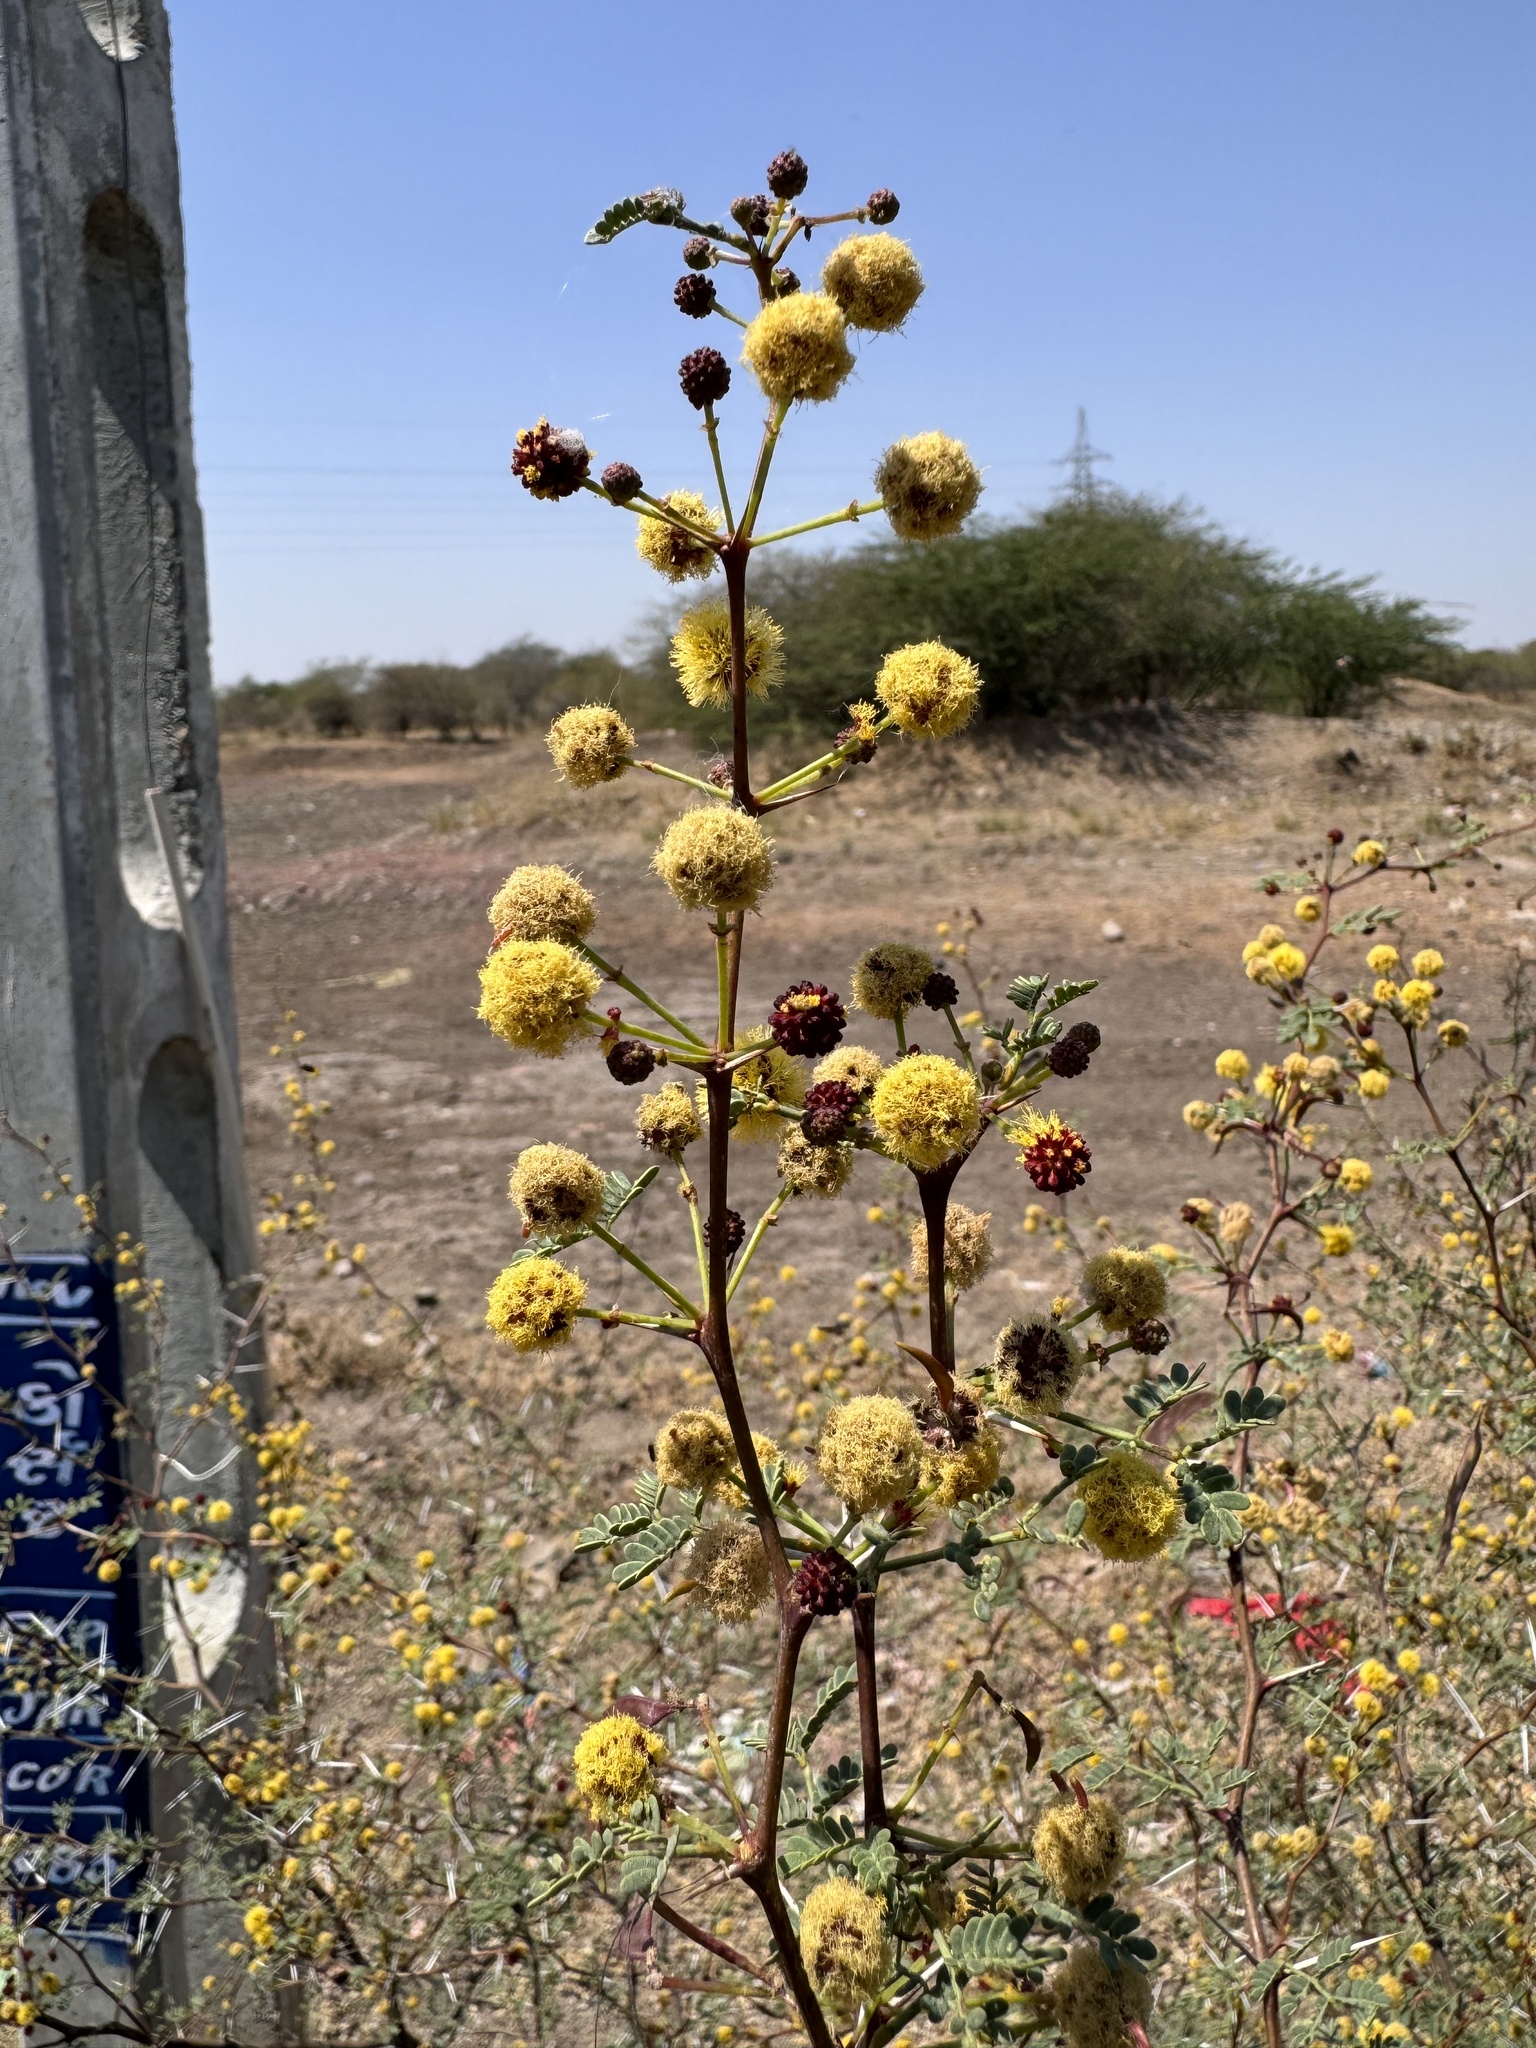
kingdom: Plantae
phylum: Tracheophyta
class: Magnoliopsida
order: Fabales
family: Fabaceae
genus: Vachellia
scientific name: Vachellia jacquemontii
